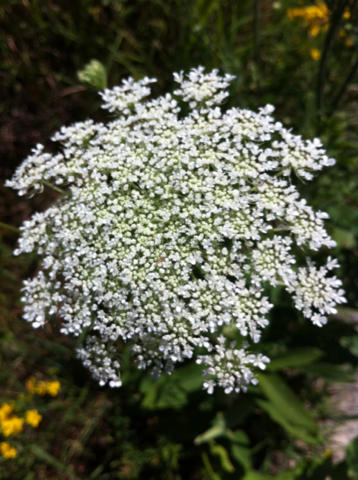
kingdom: Plantae
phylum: Tracheophyta
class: Magnoliopsida
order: Apiales
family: Apiaceae
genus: Daucus
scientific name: Daucus carota
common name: Wild carrot
